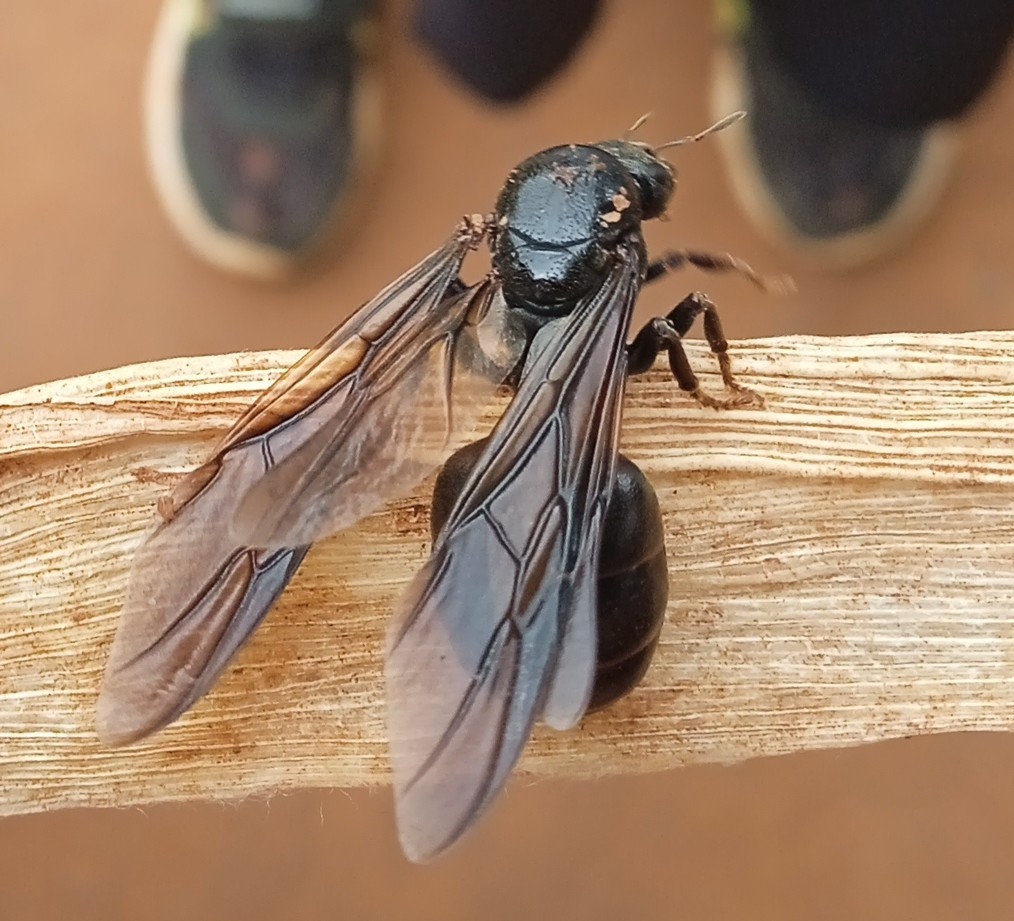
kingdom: Animalia
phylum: Arthropoda
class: Insecta
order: Hymenoptera
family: Formicidae
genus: Carebara
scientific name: Carebara vidua
